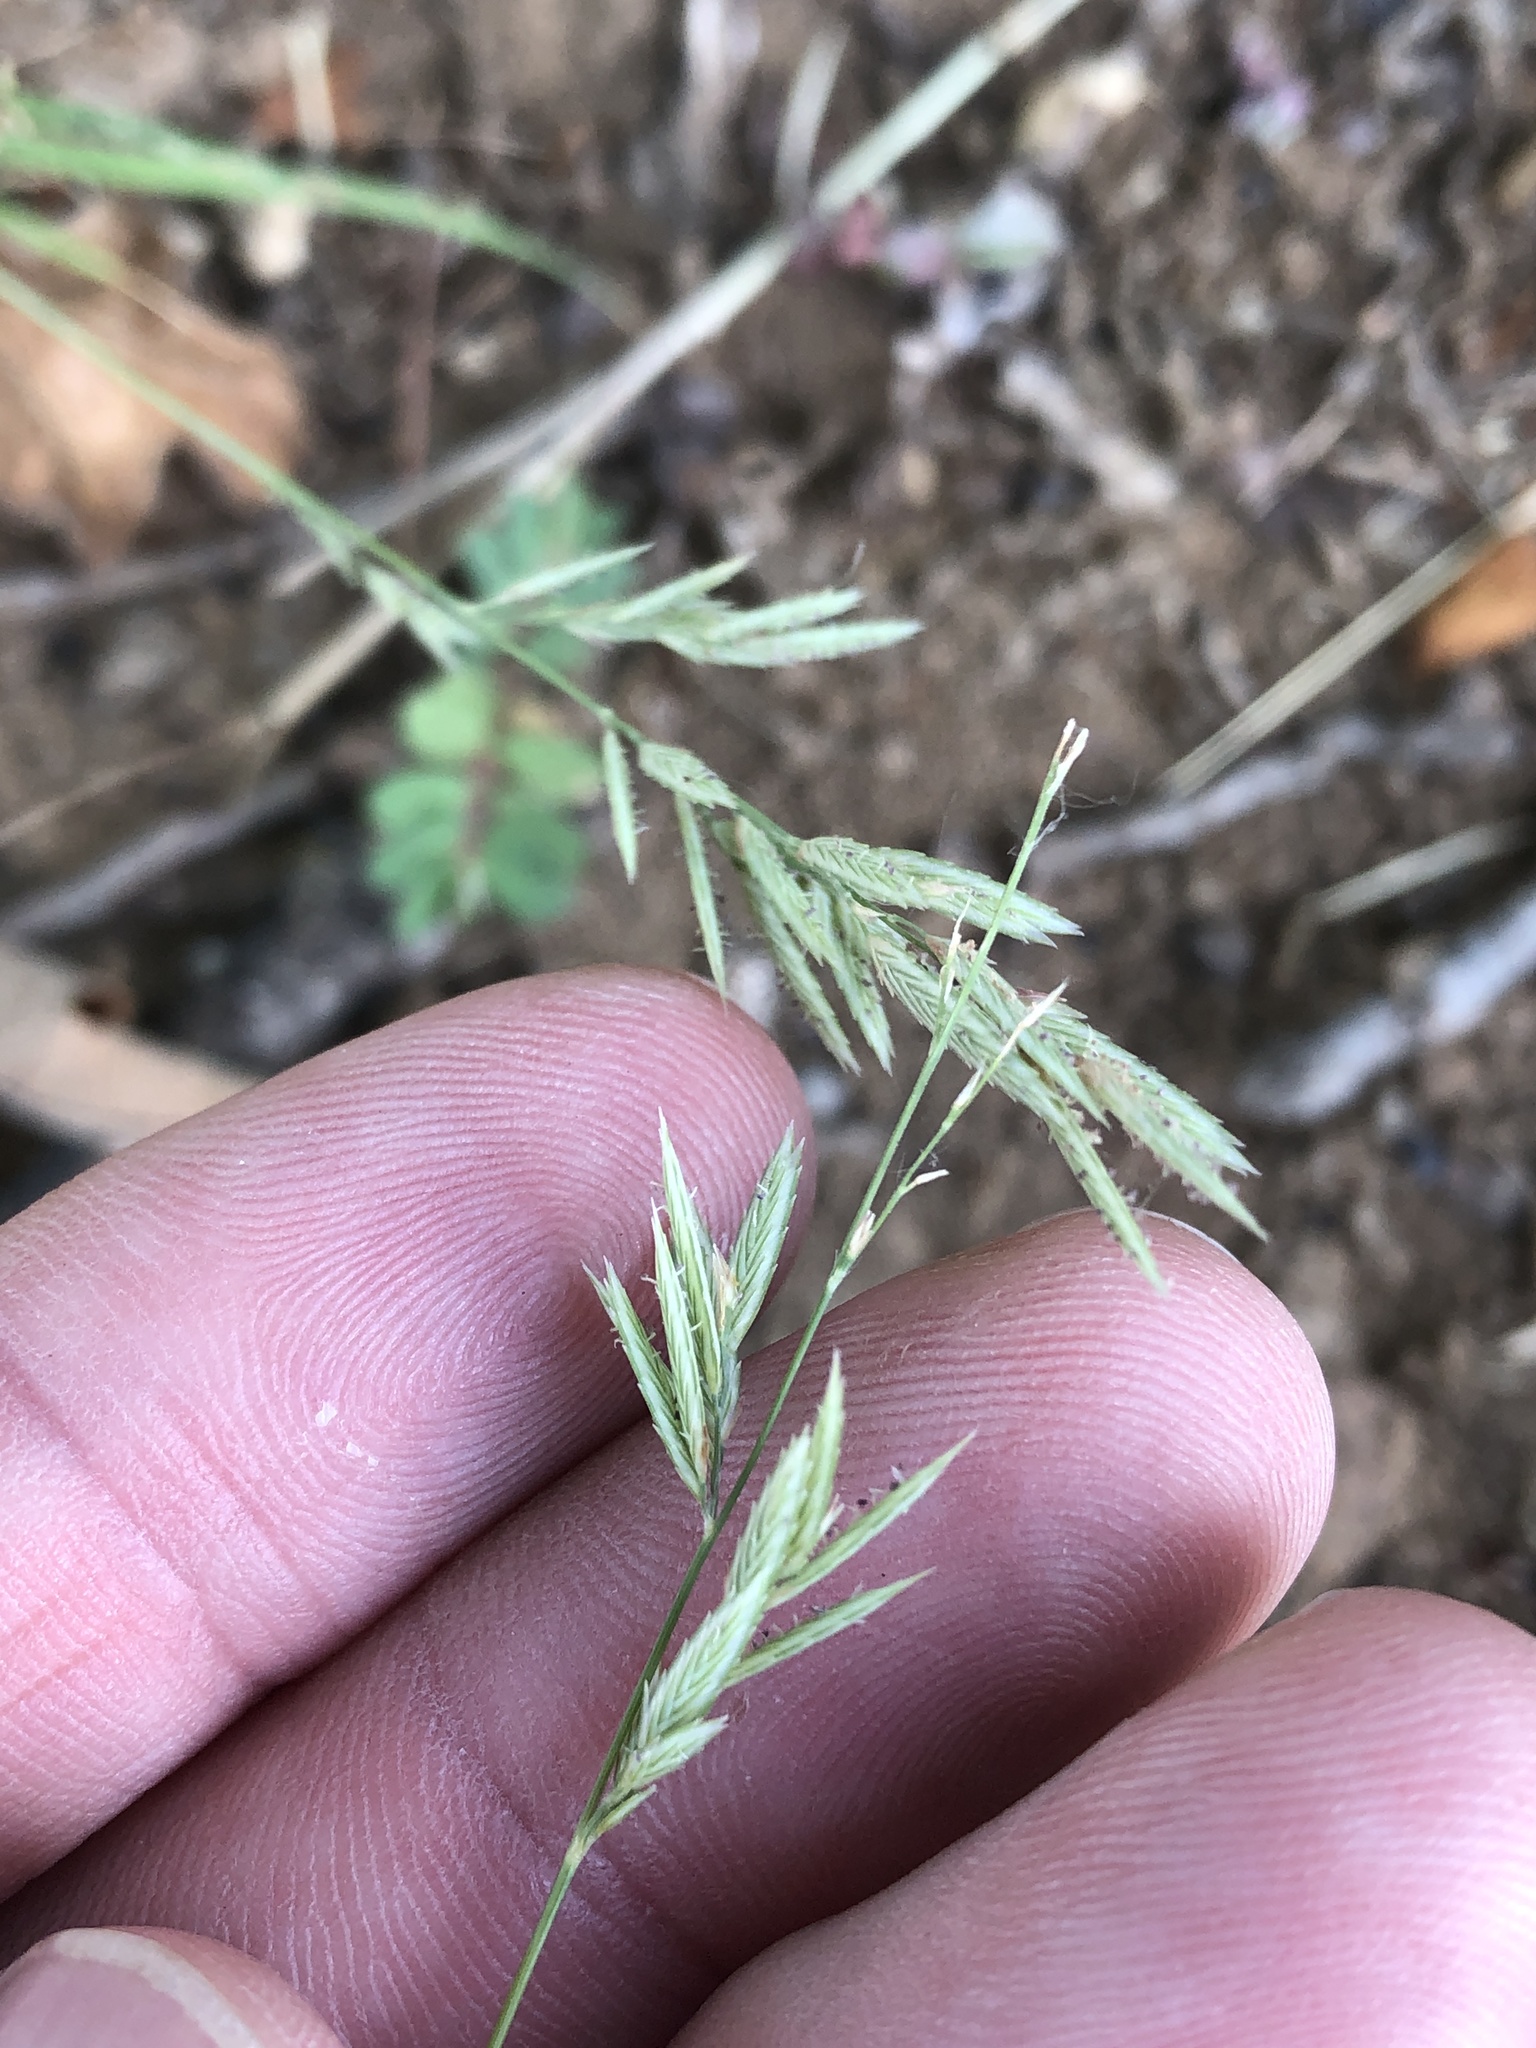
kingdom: Plantae
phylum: Tracheophyta
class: Liliopsida
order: Poales
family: Poaceae
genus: Eragrostis
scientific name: Eragrostis secundiflora
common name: Red love grass
